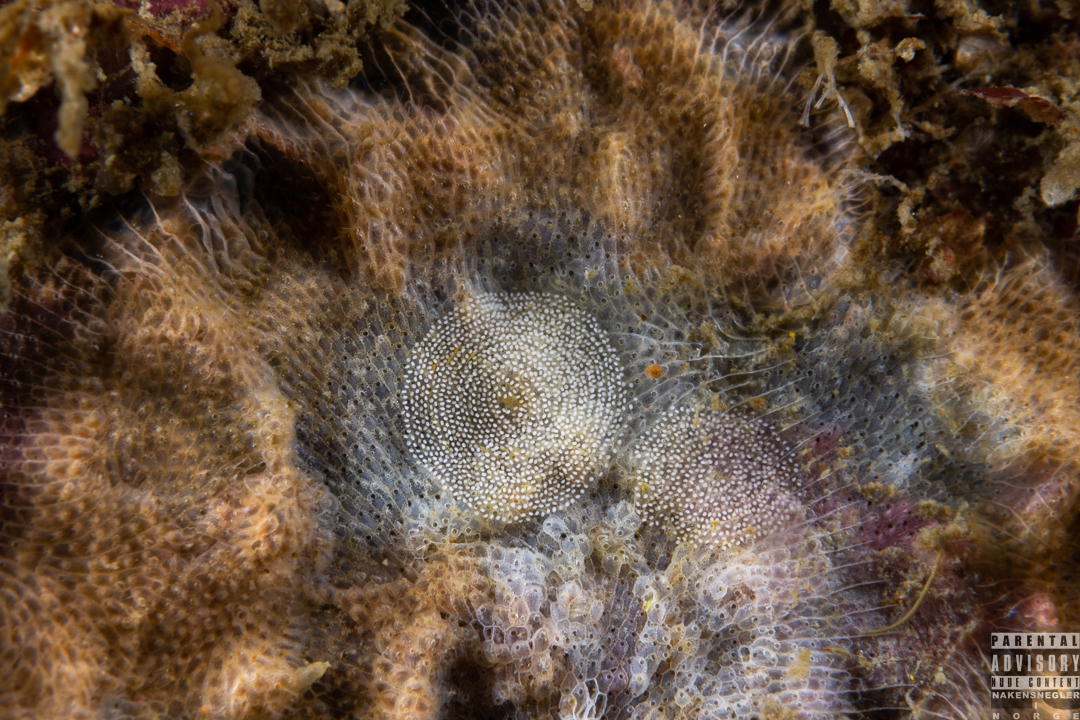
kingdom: Animalia
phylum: Mollusca
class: Gastropoda
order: Nudibranchia
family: Onchidorididae
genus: Idaliadoris
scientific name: Idaliadoris depressa
